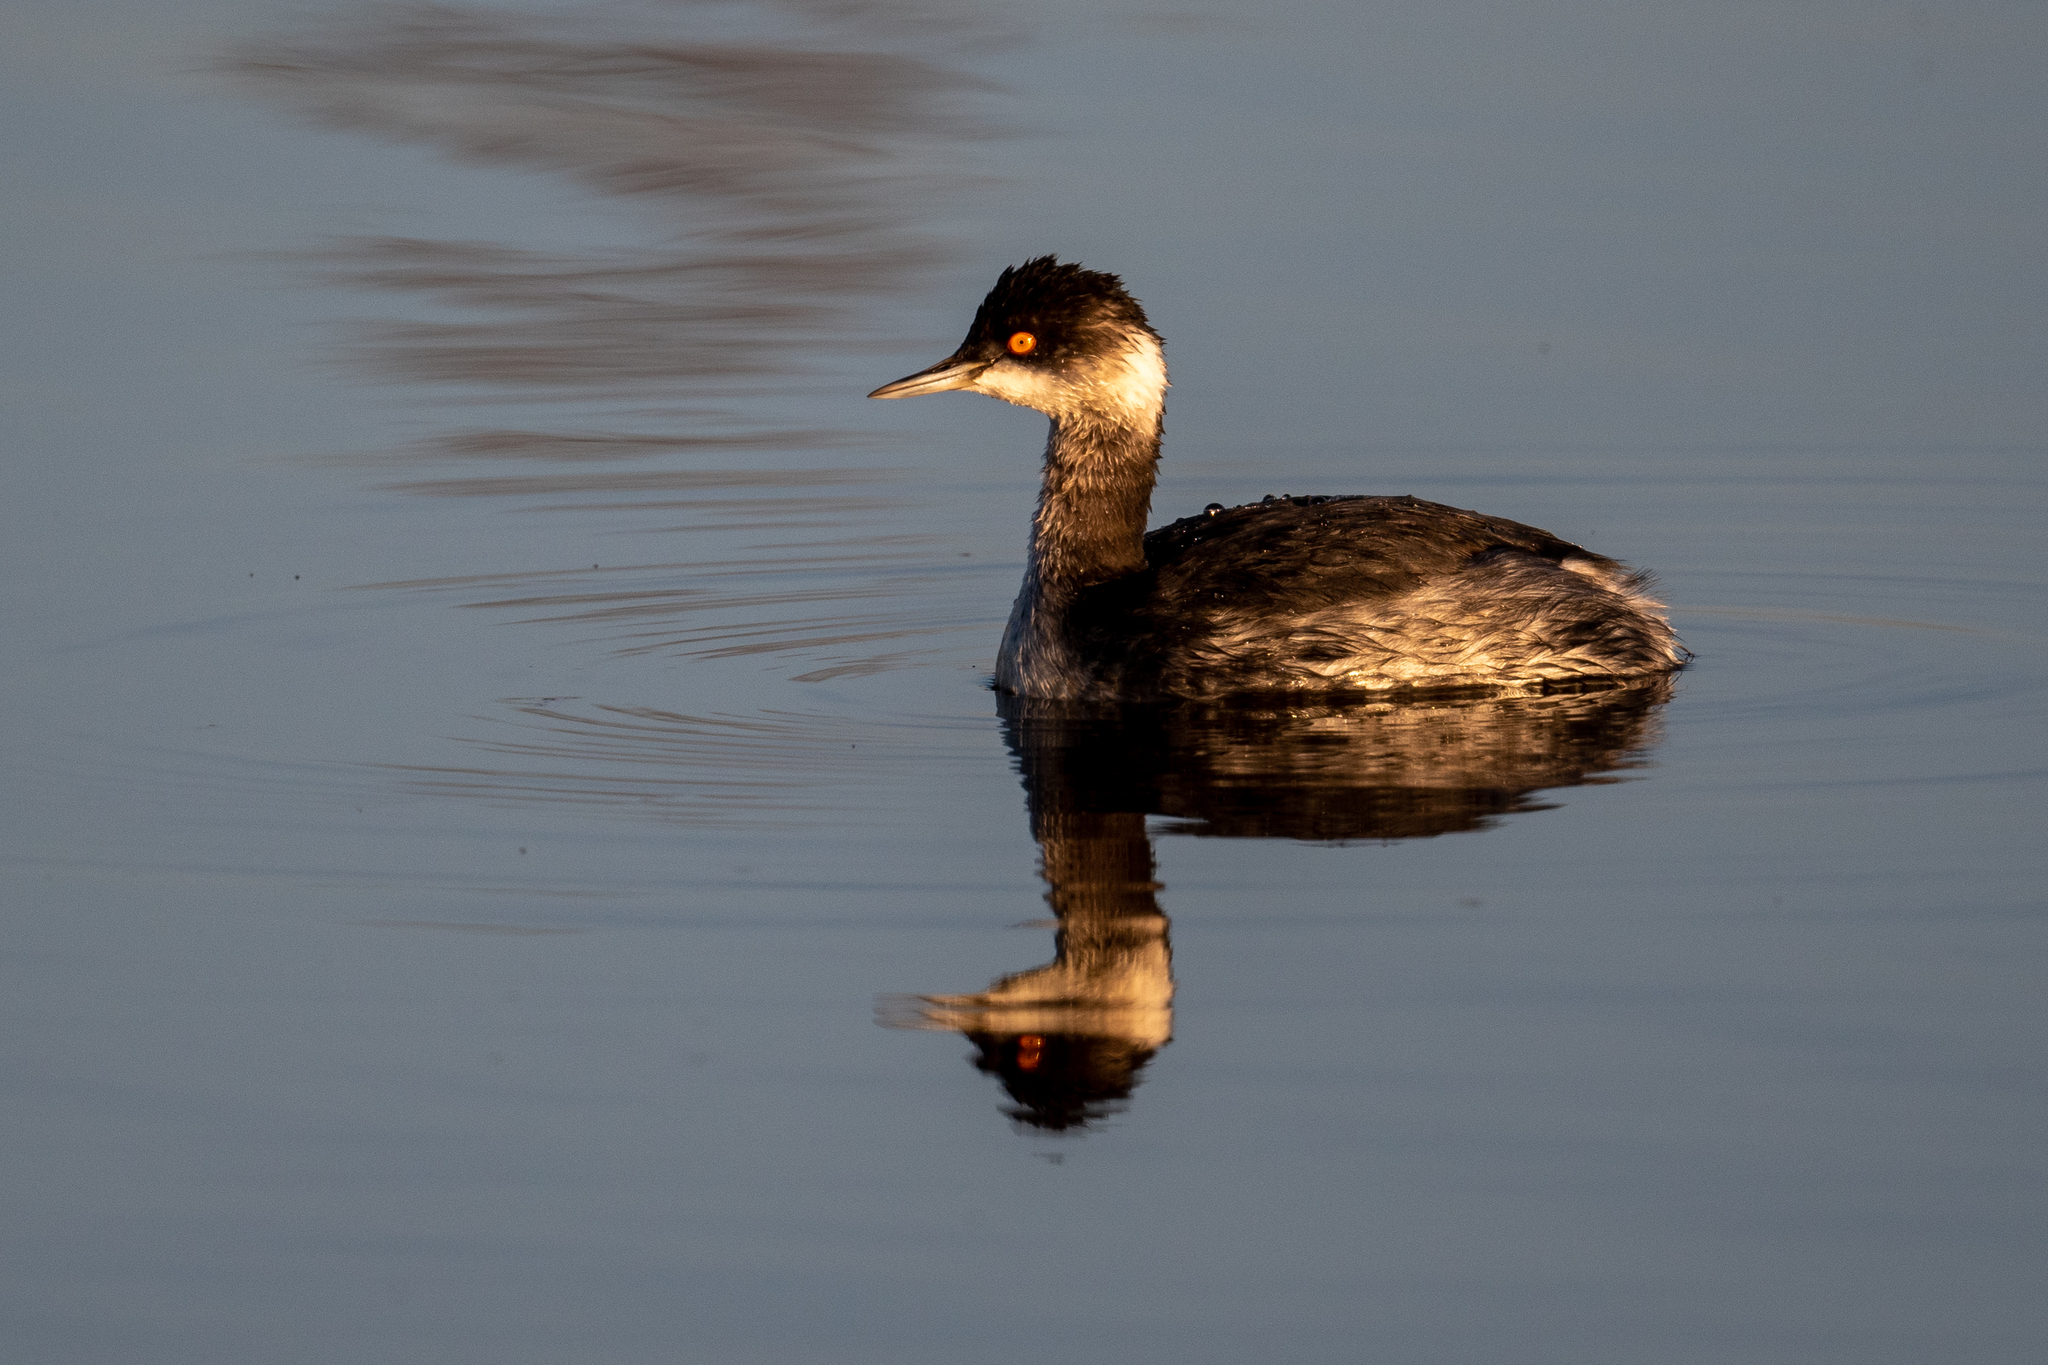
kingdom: Animalia
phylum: Chordata
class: Aves
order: Podicipediformes
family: Podicipedidae
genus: Podiceps
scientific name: Podiceps nigricollis
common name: Black-necked grebe
